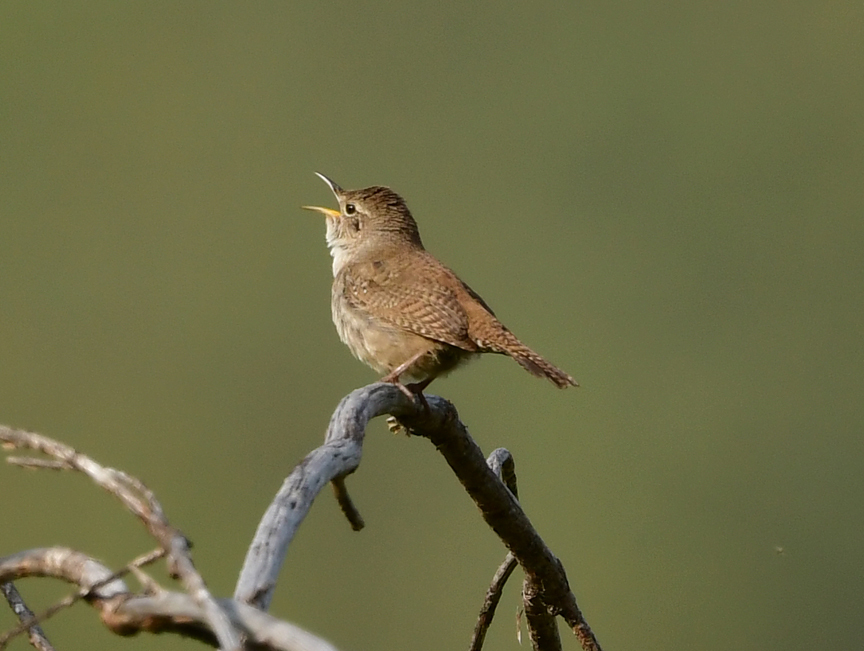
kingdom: Animalia
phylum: Chordata
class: Aves
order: Passeriformes
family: Troglodytidae
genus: Troglodytes
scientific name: Troglodytes aedon
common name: House wren
